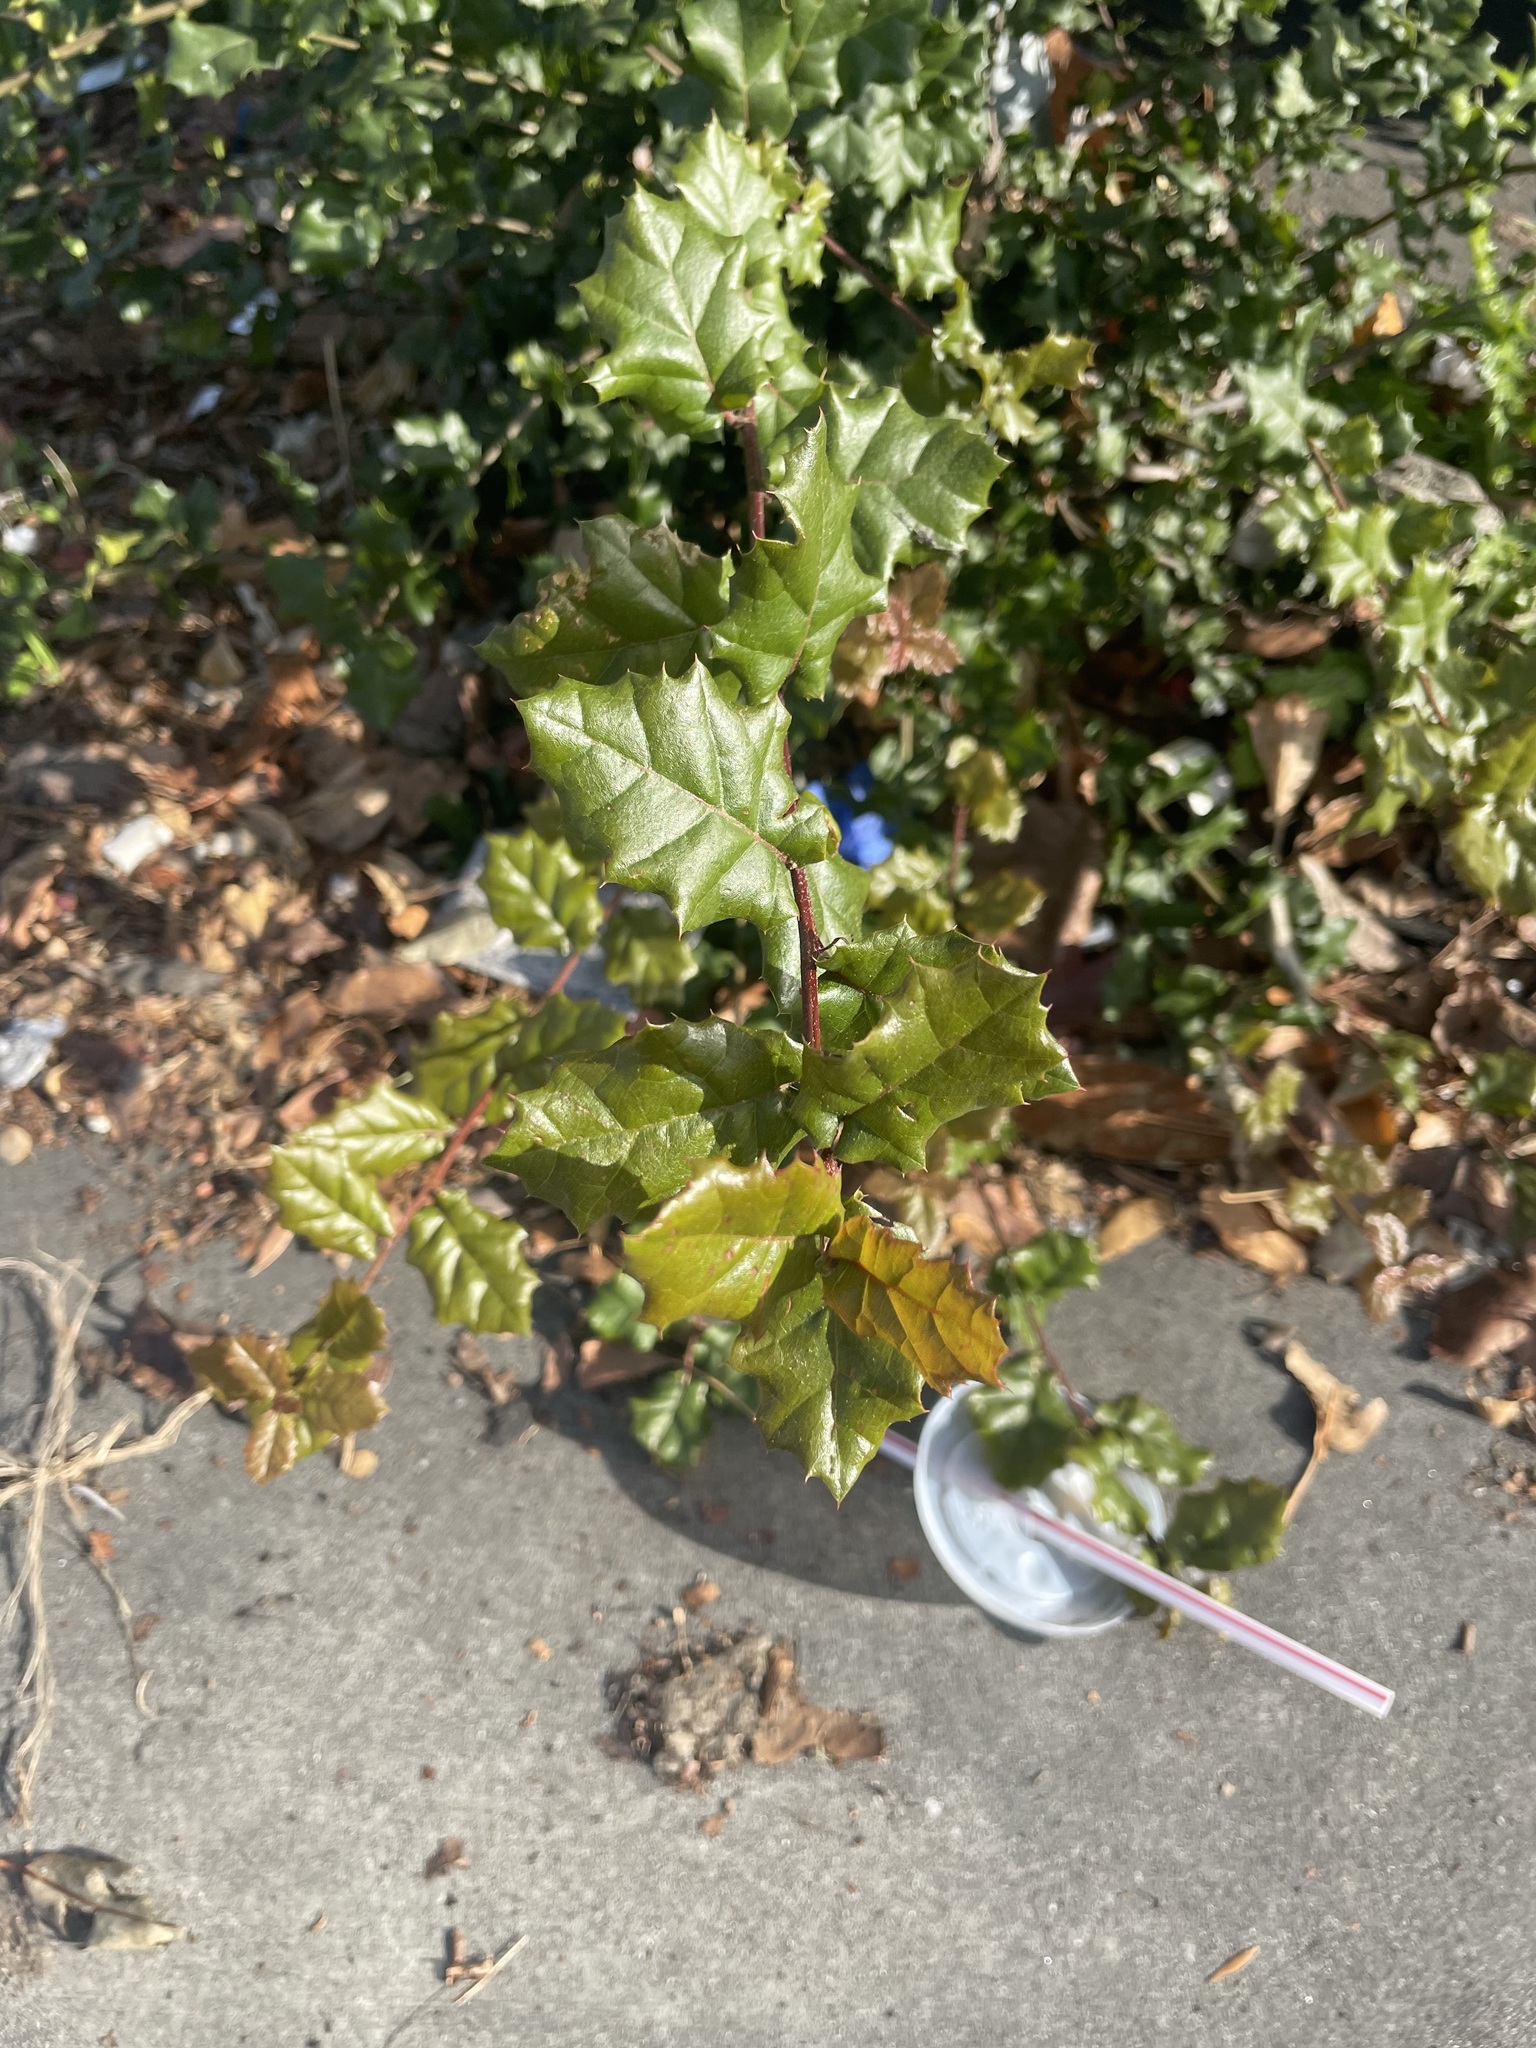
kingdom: Plantae
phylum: Tracheophyta
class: Magnoliopsida
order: Fagales
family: Fagaceae
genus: Quercus
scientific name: Quercus agrifolia
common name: California live oak
